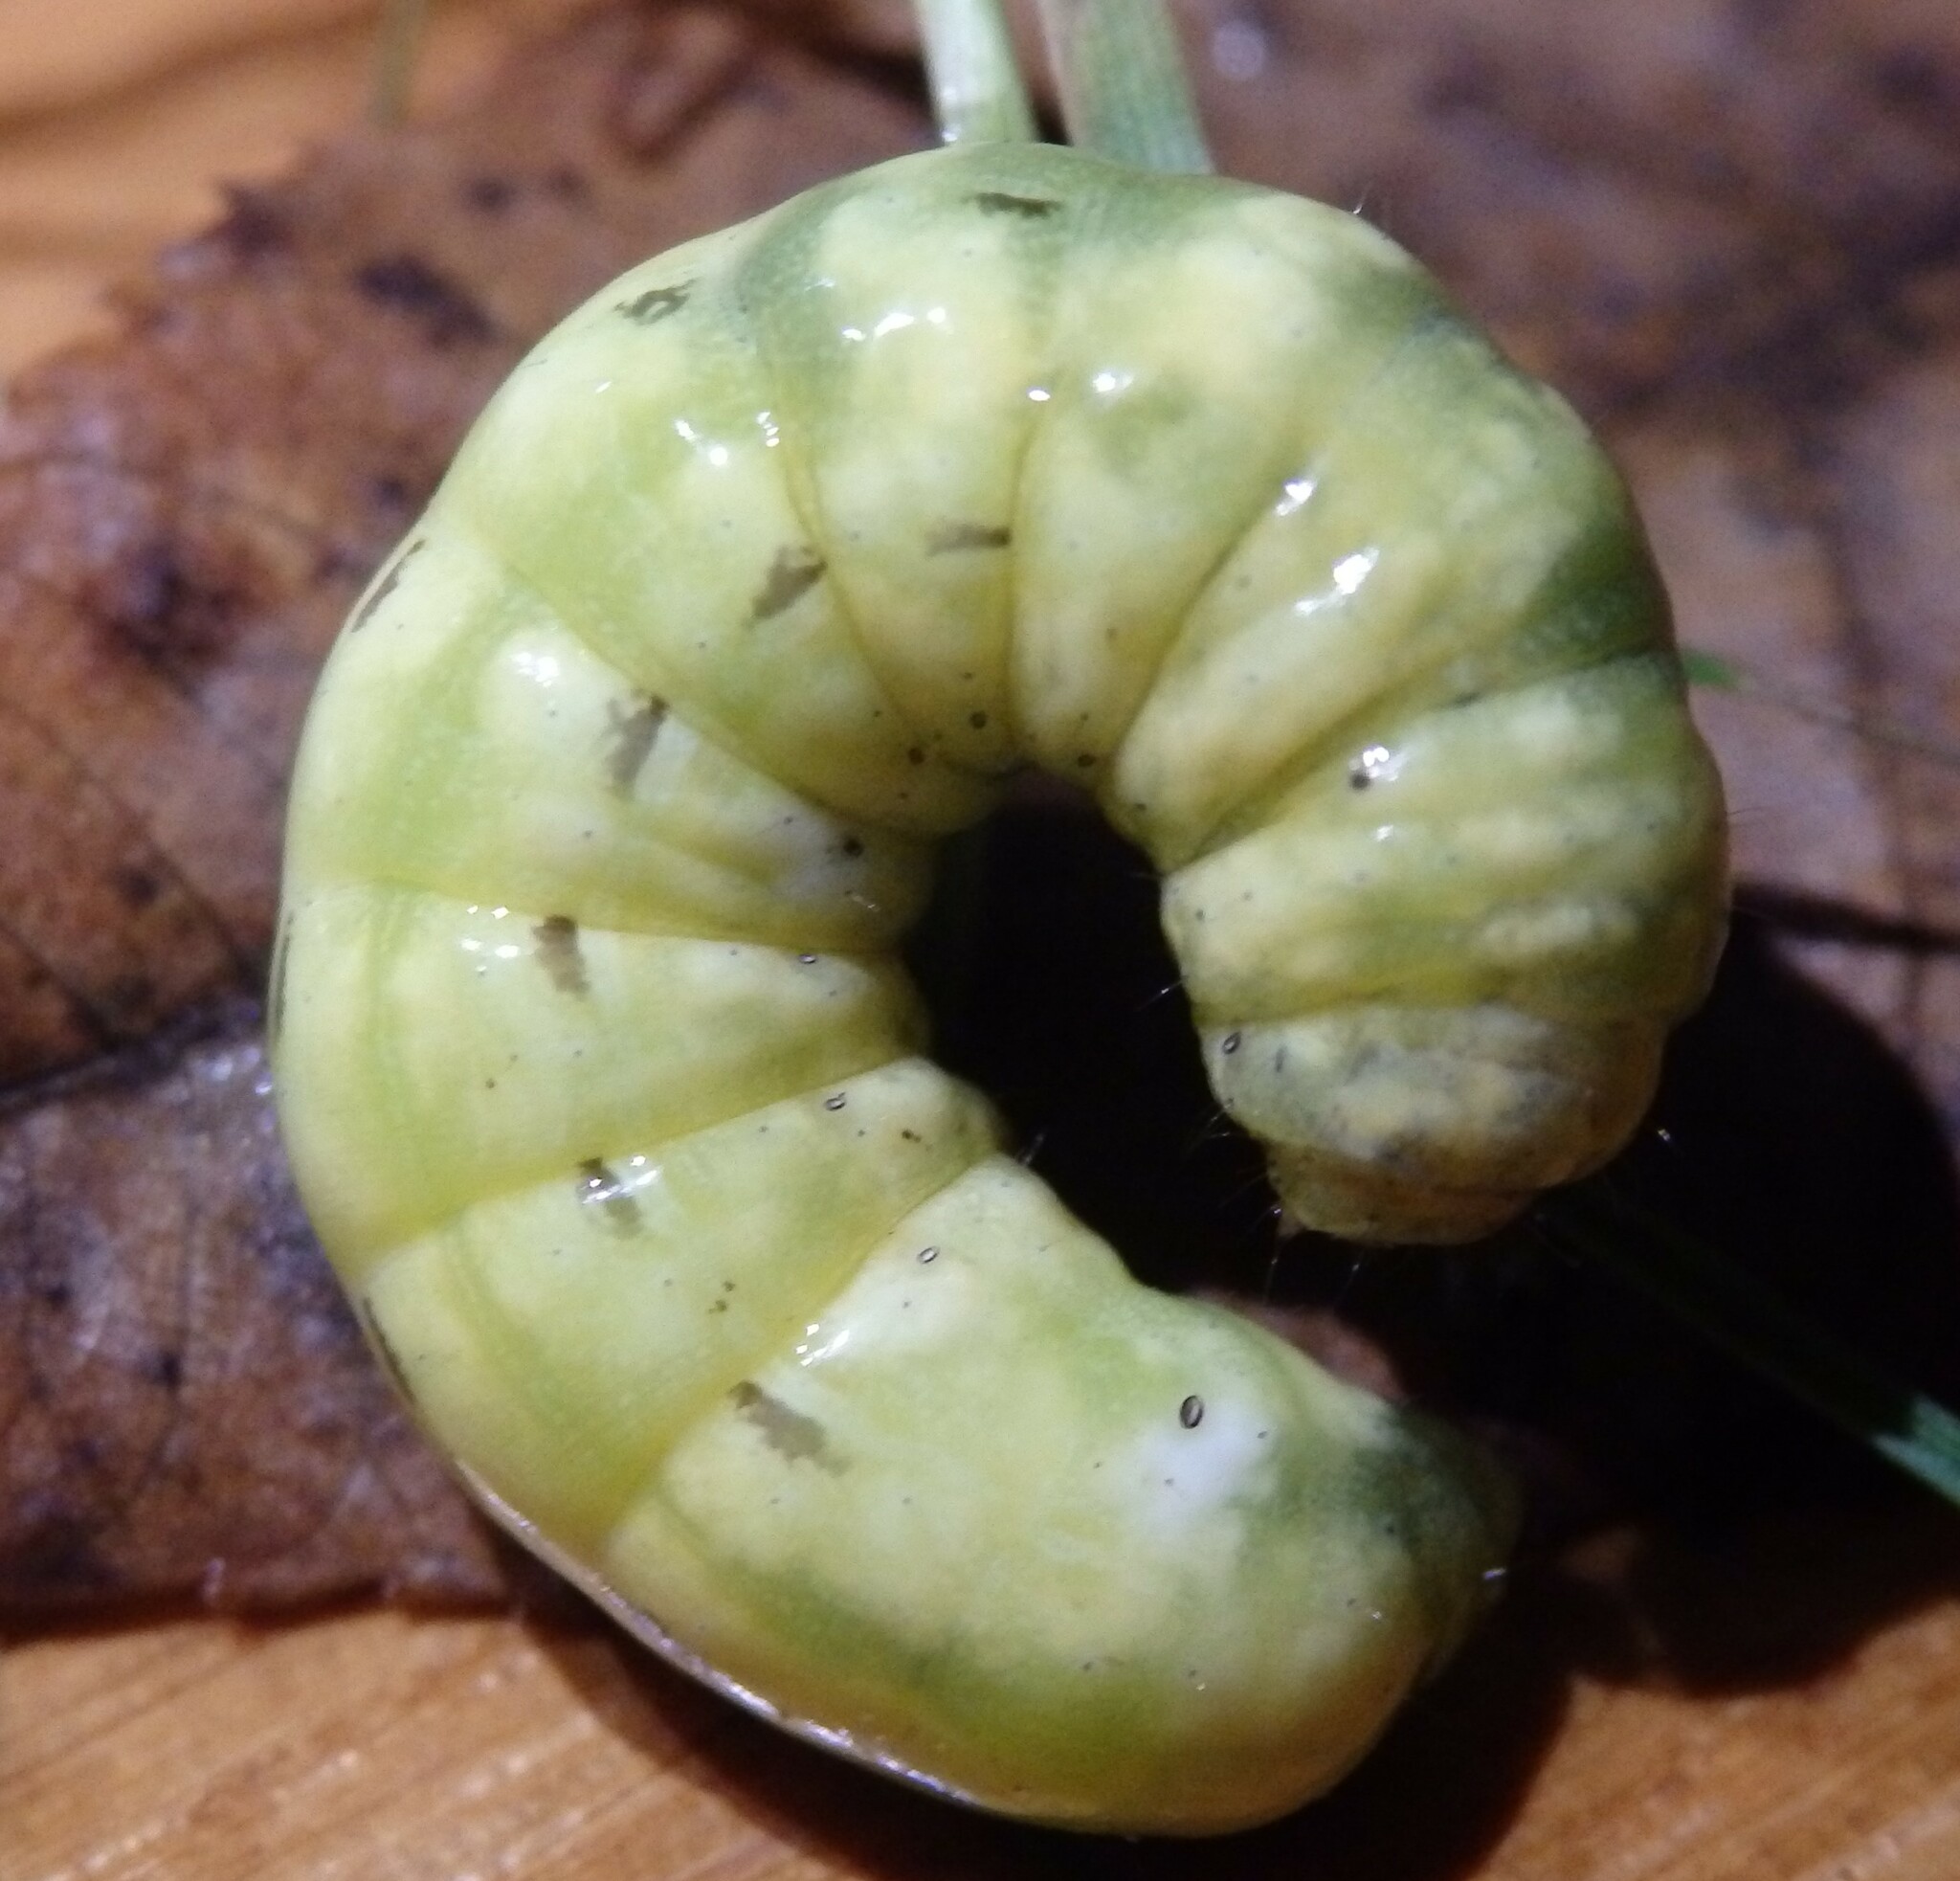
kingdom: Animalia
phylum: Arthropoda
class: Insecta
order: Lepidoptera
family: Noctuidae
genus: Noctua
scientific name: Noctua pronuba
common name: Large yellow underwing
